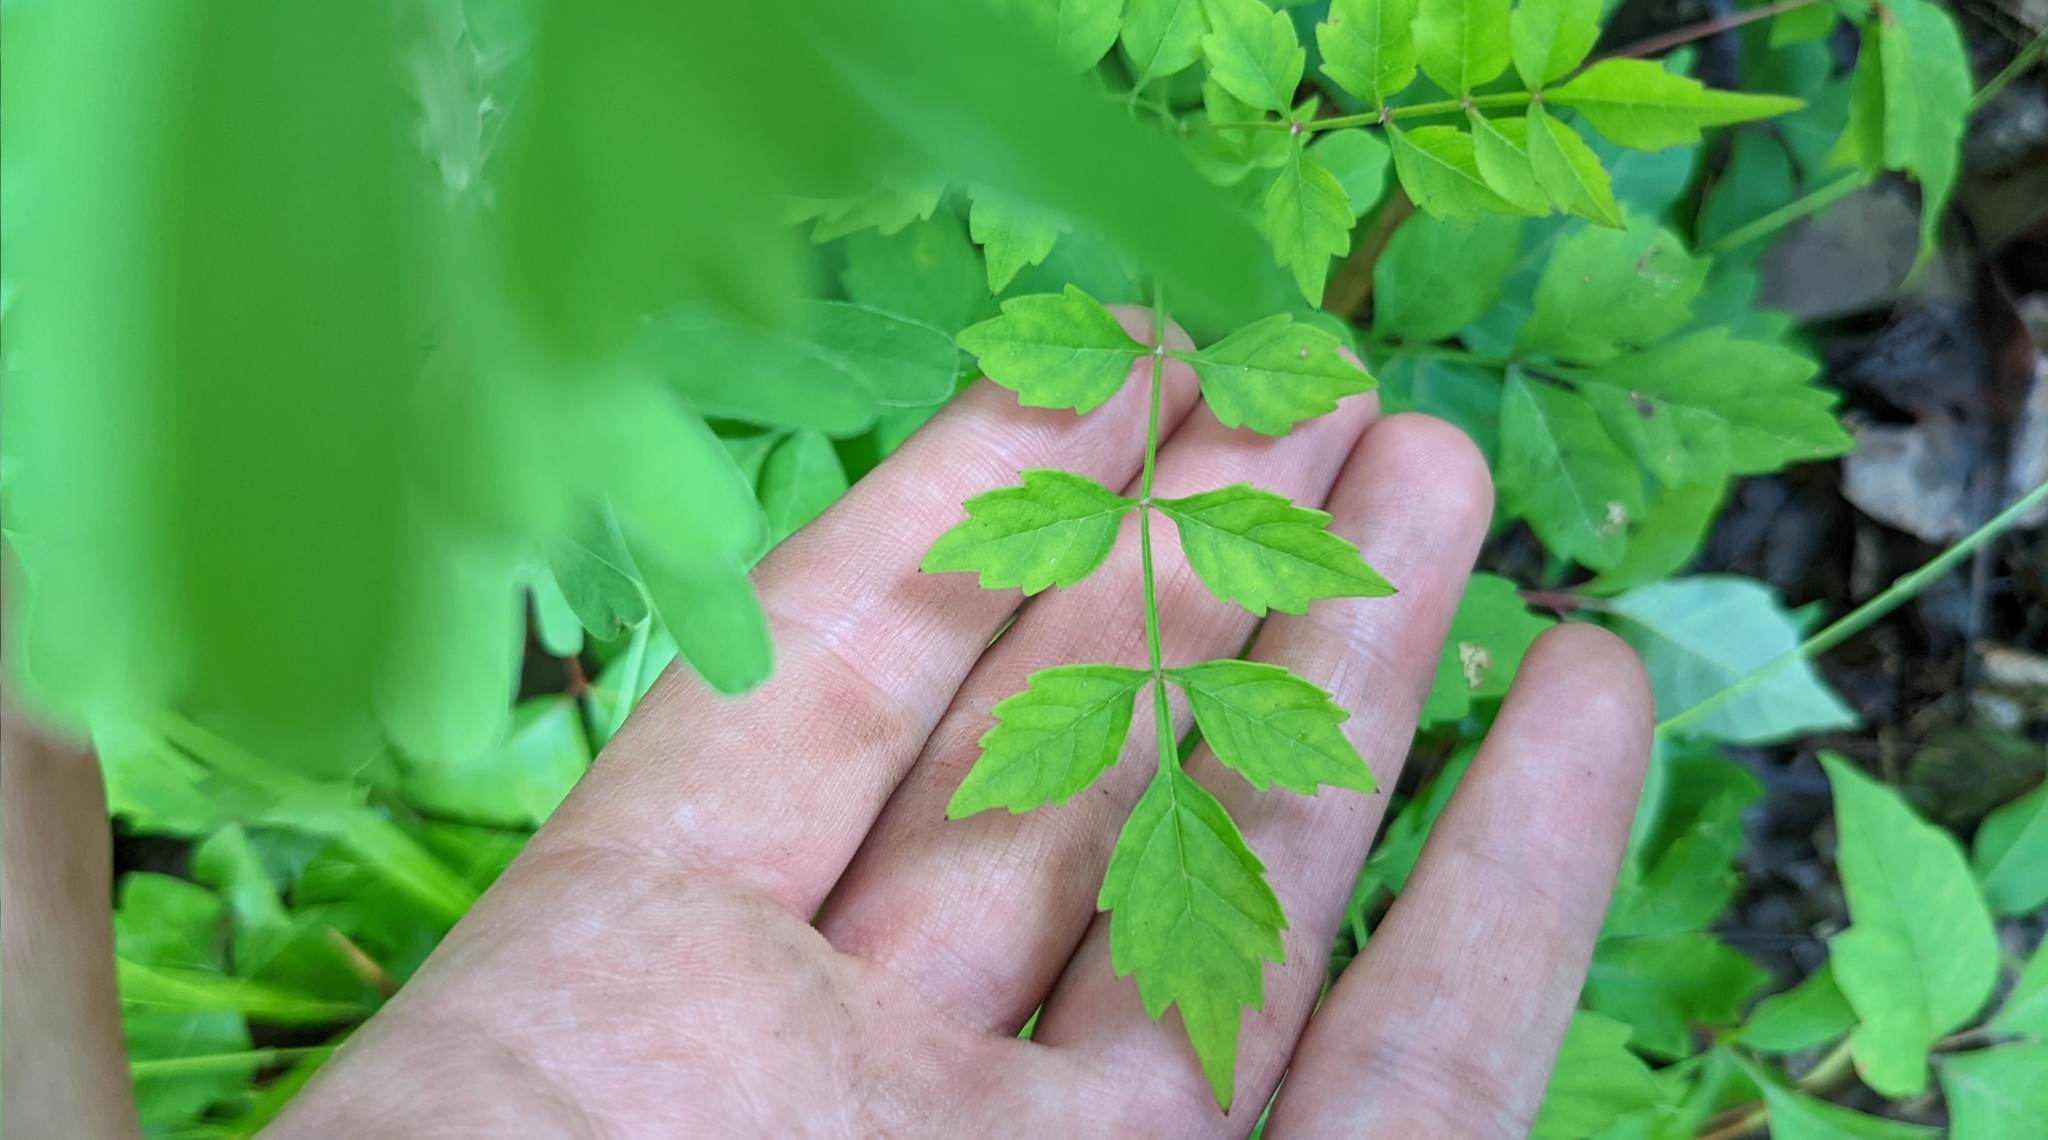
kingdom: Plantae
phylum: Tracheophyta
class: Magnoliopsida
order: Lamiales
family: Bignoniaceae
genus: Campsis
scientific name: Campsis radicans
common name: Trumpet-creeper
